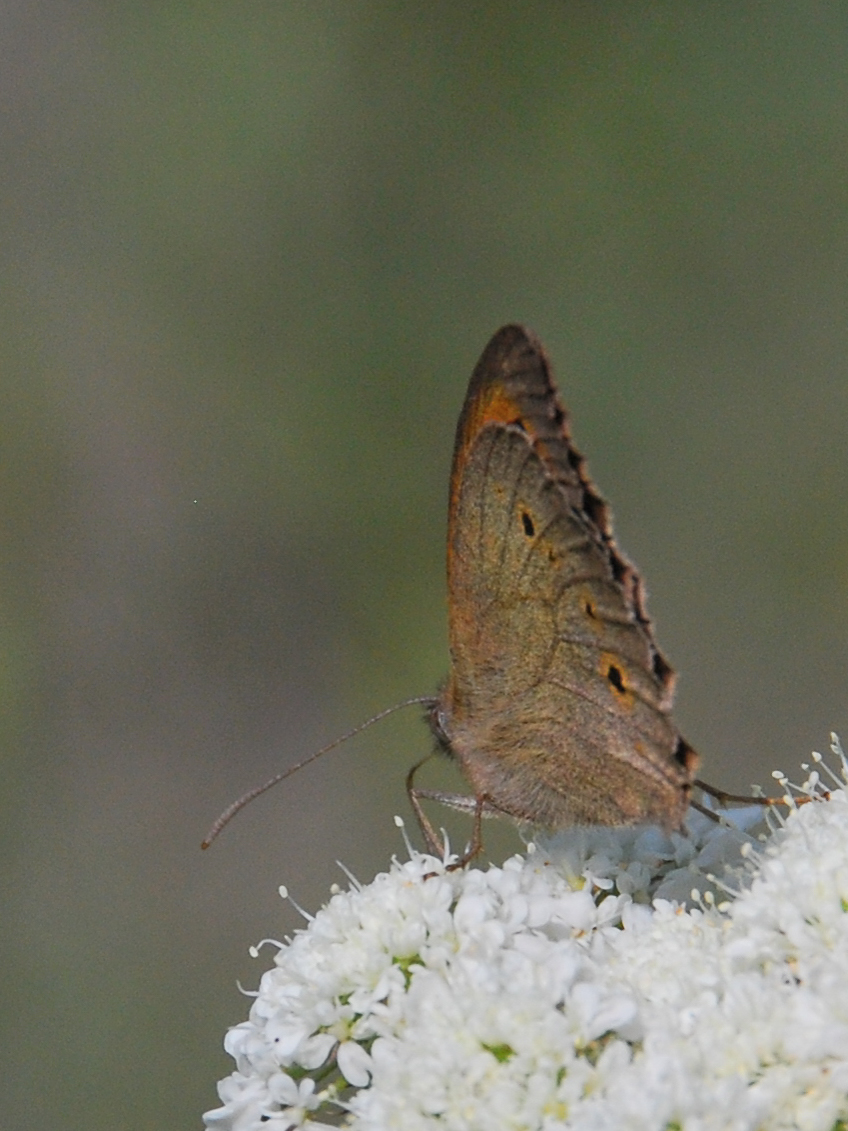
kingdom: Animalia
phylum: Arthropoda
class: Insecta
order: Lepidoptera
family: Nymphalidae
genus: Maniola
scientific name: Maniola jurtina
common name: Meadow brown
